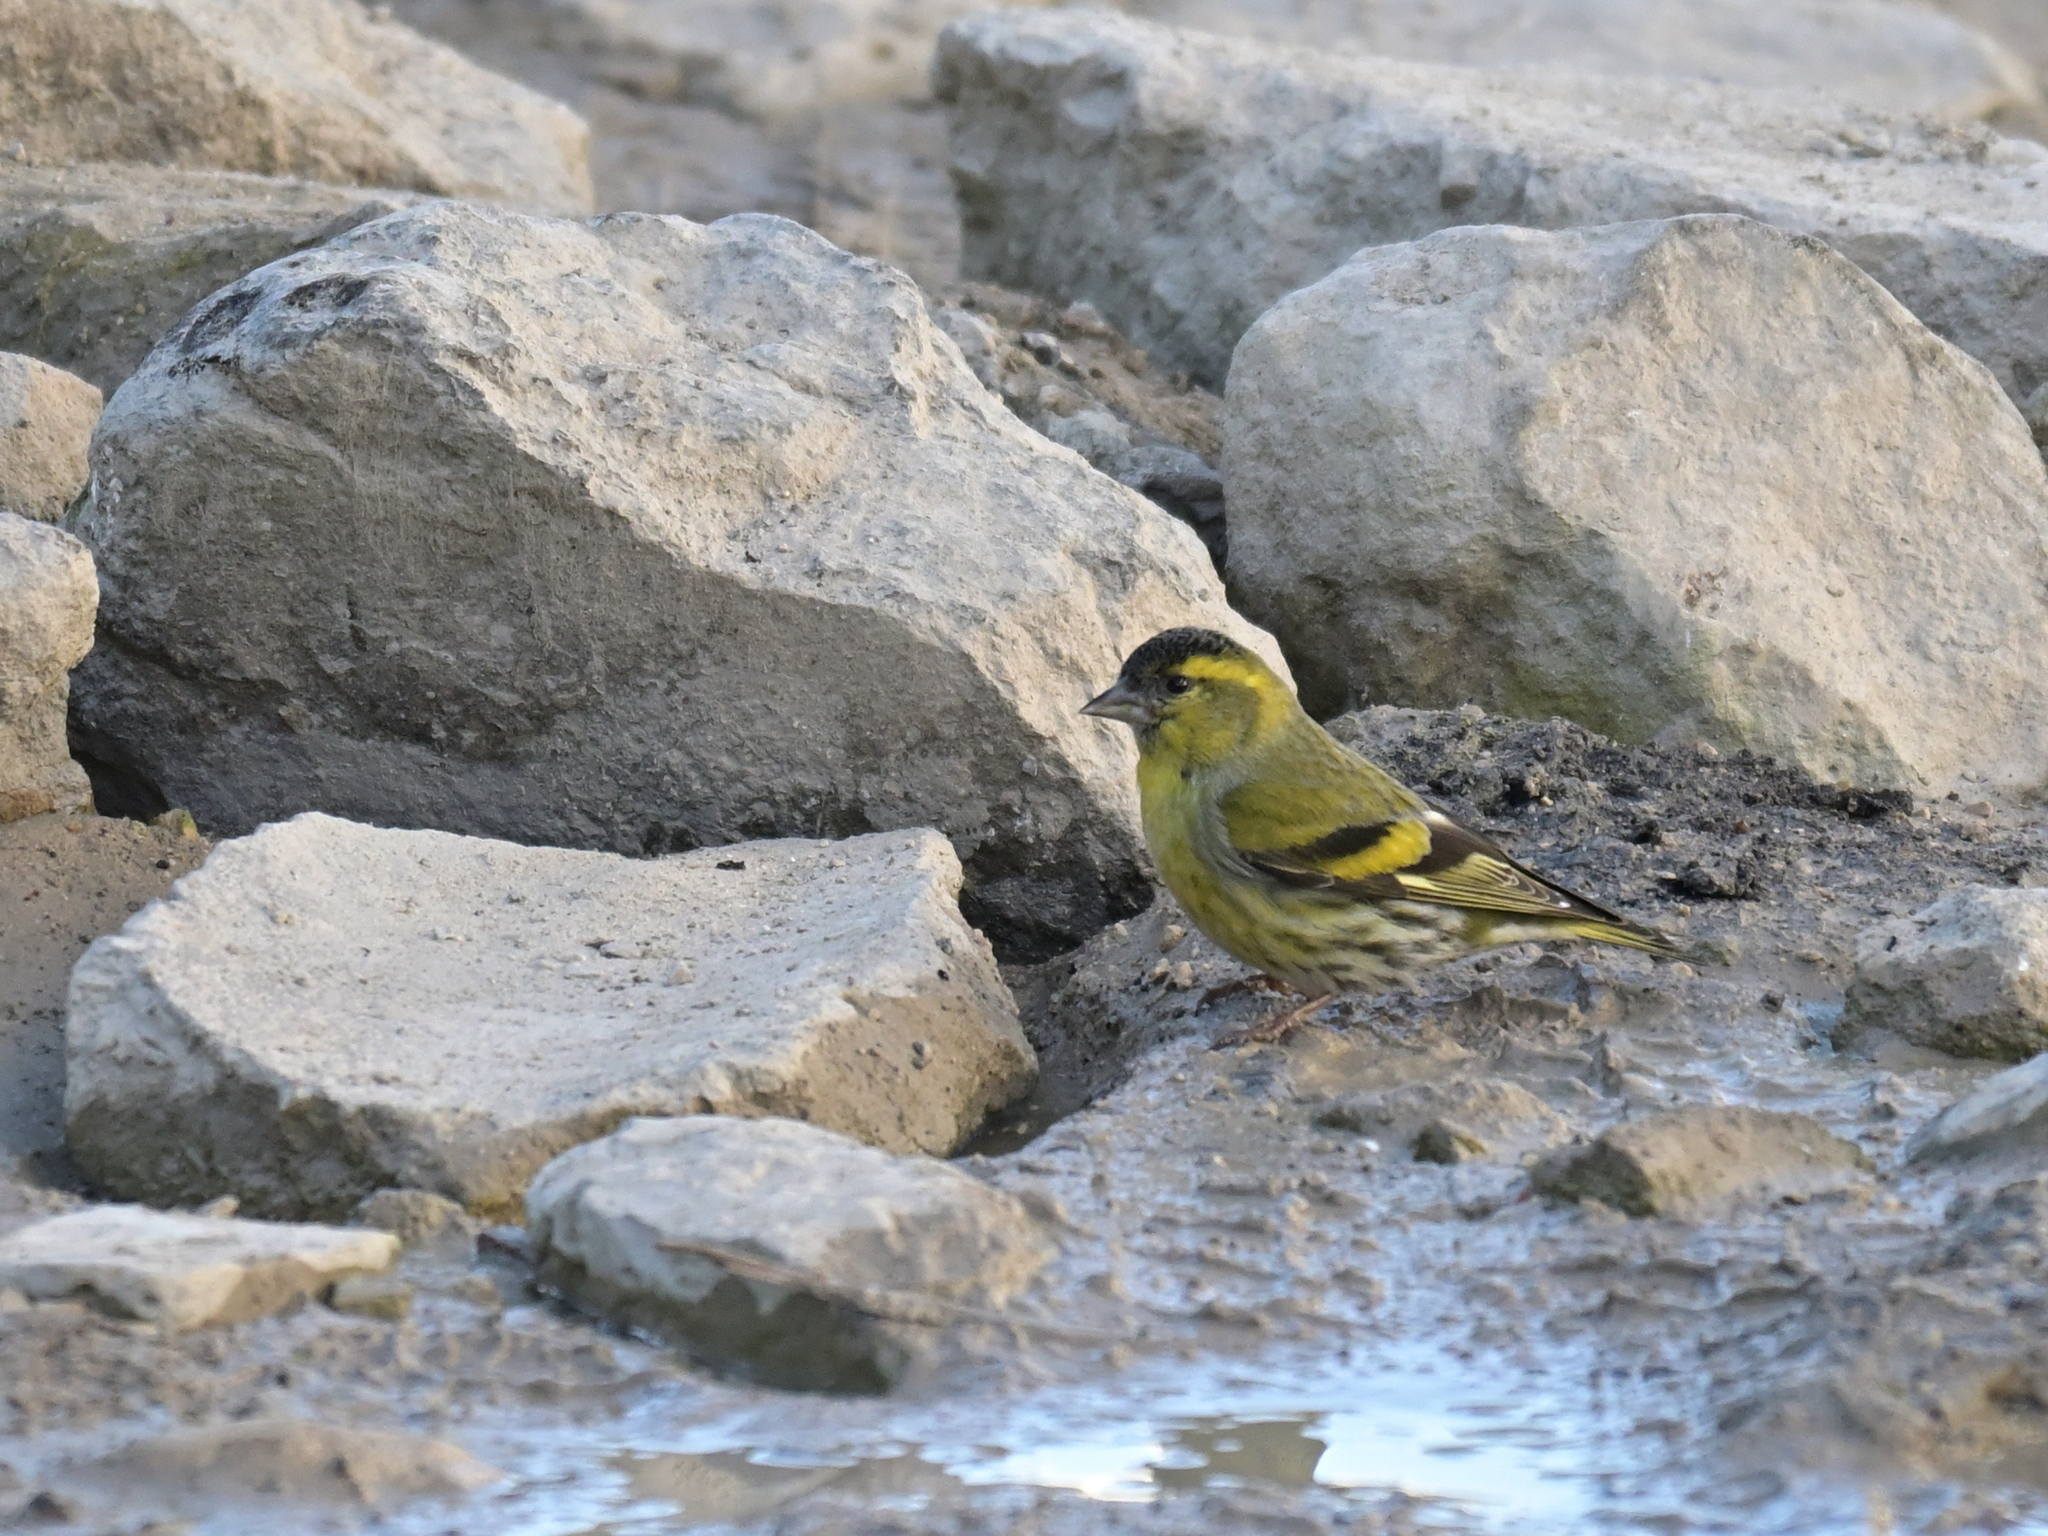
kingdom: Animalia
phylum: Chordata
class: Aves
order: Passeriformes
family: Fringillidae
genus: Spinus
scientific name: Spinus spinus
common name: Eurasian siskin
